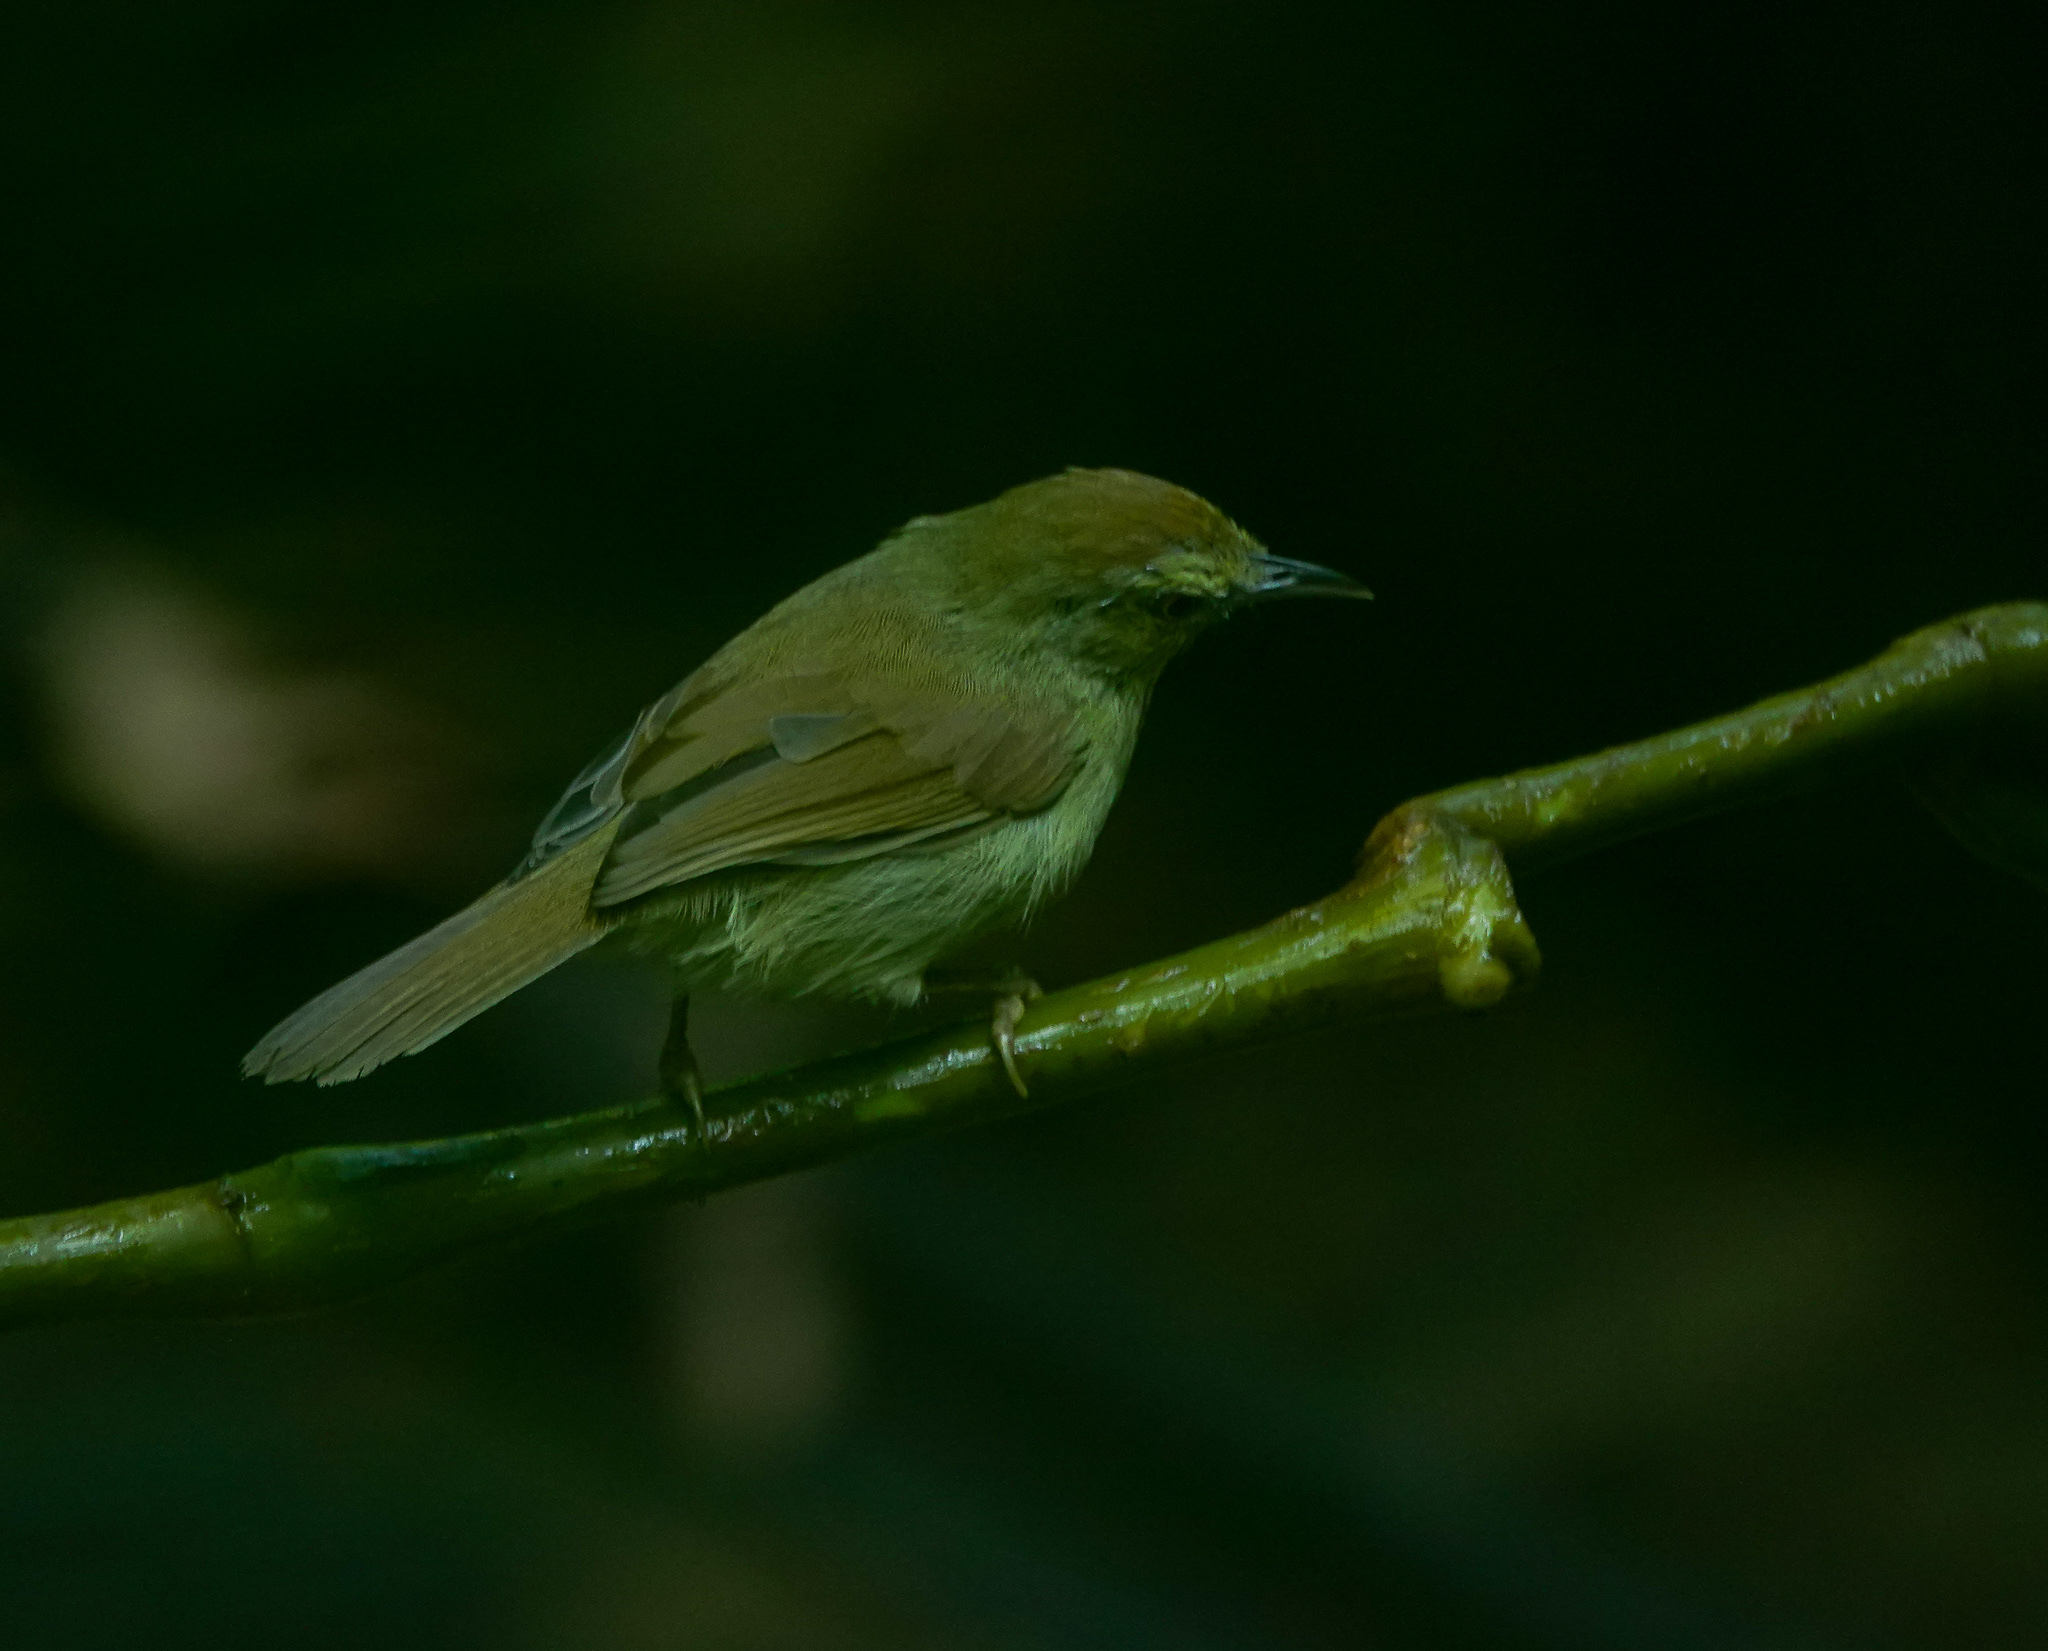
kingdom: Animalia
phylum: Chordata
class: Aves
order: Passeriformes
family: Timaliidae
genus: Macronus
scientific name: Macronus gularis
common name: Striped tit-babbler
